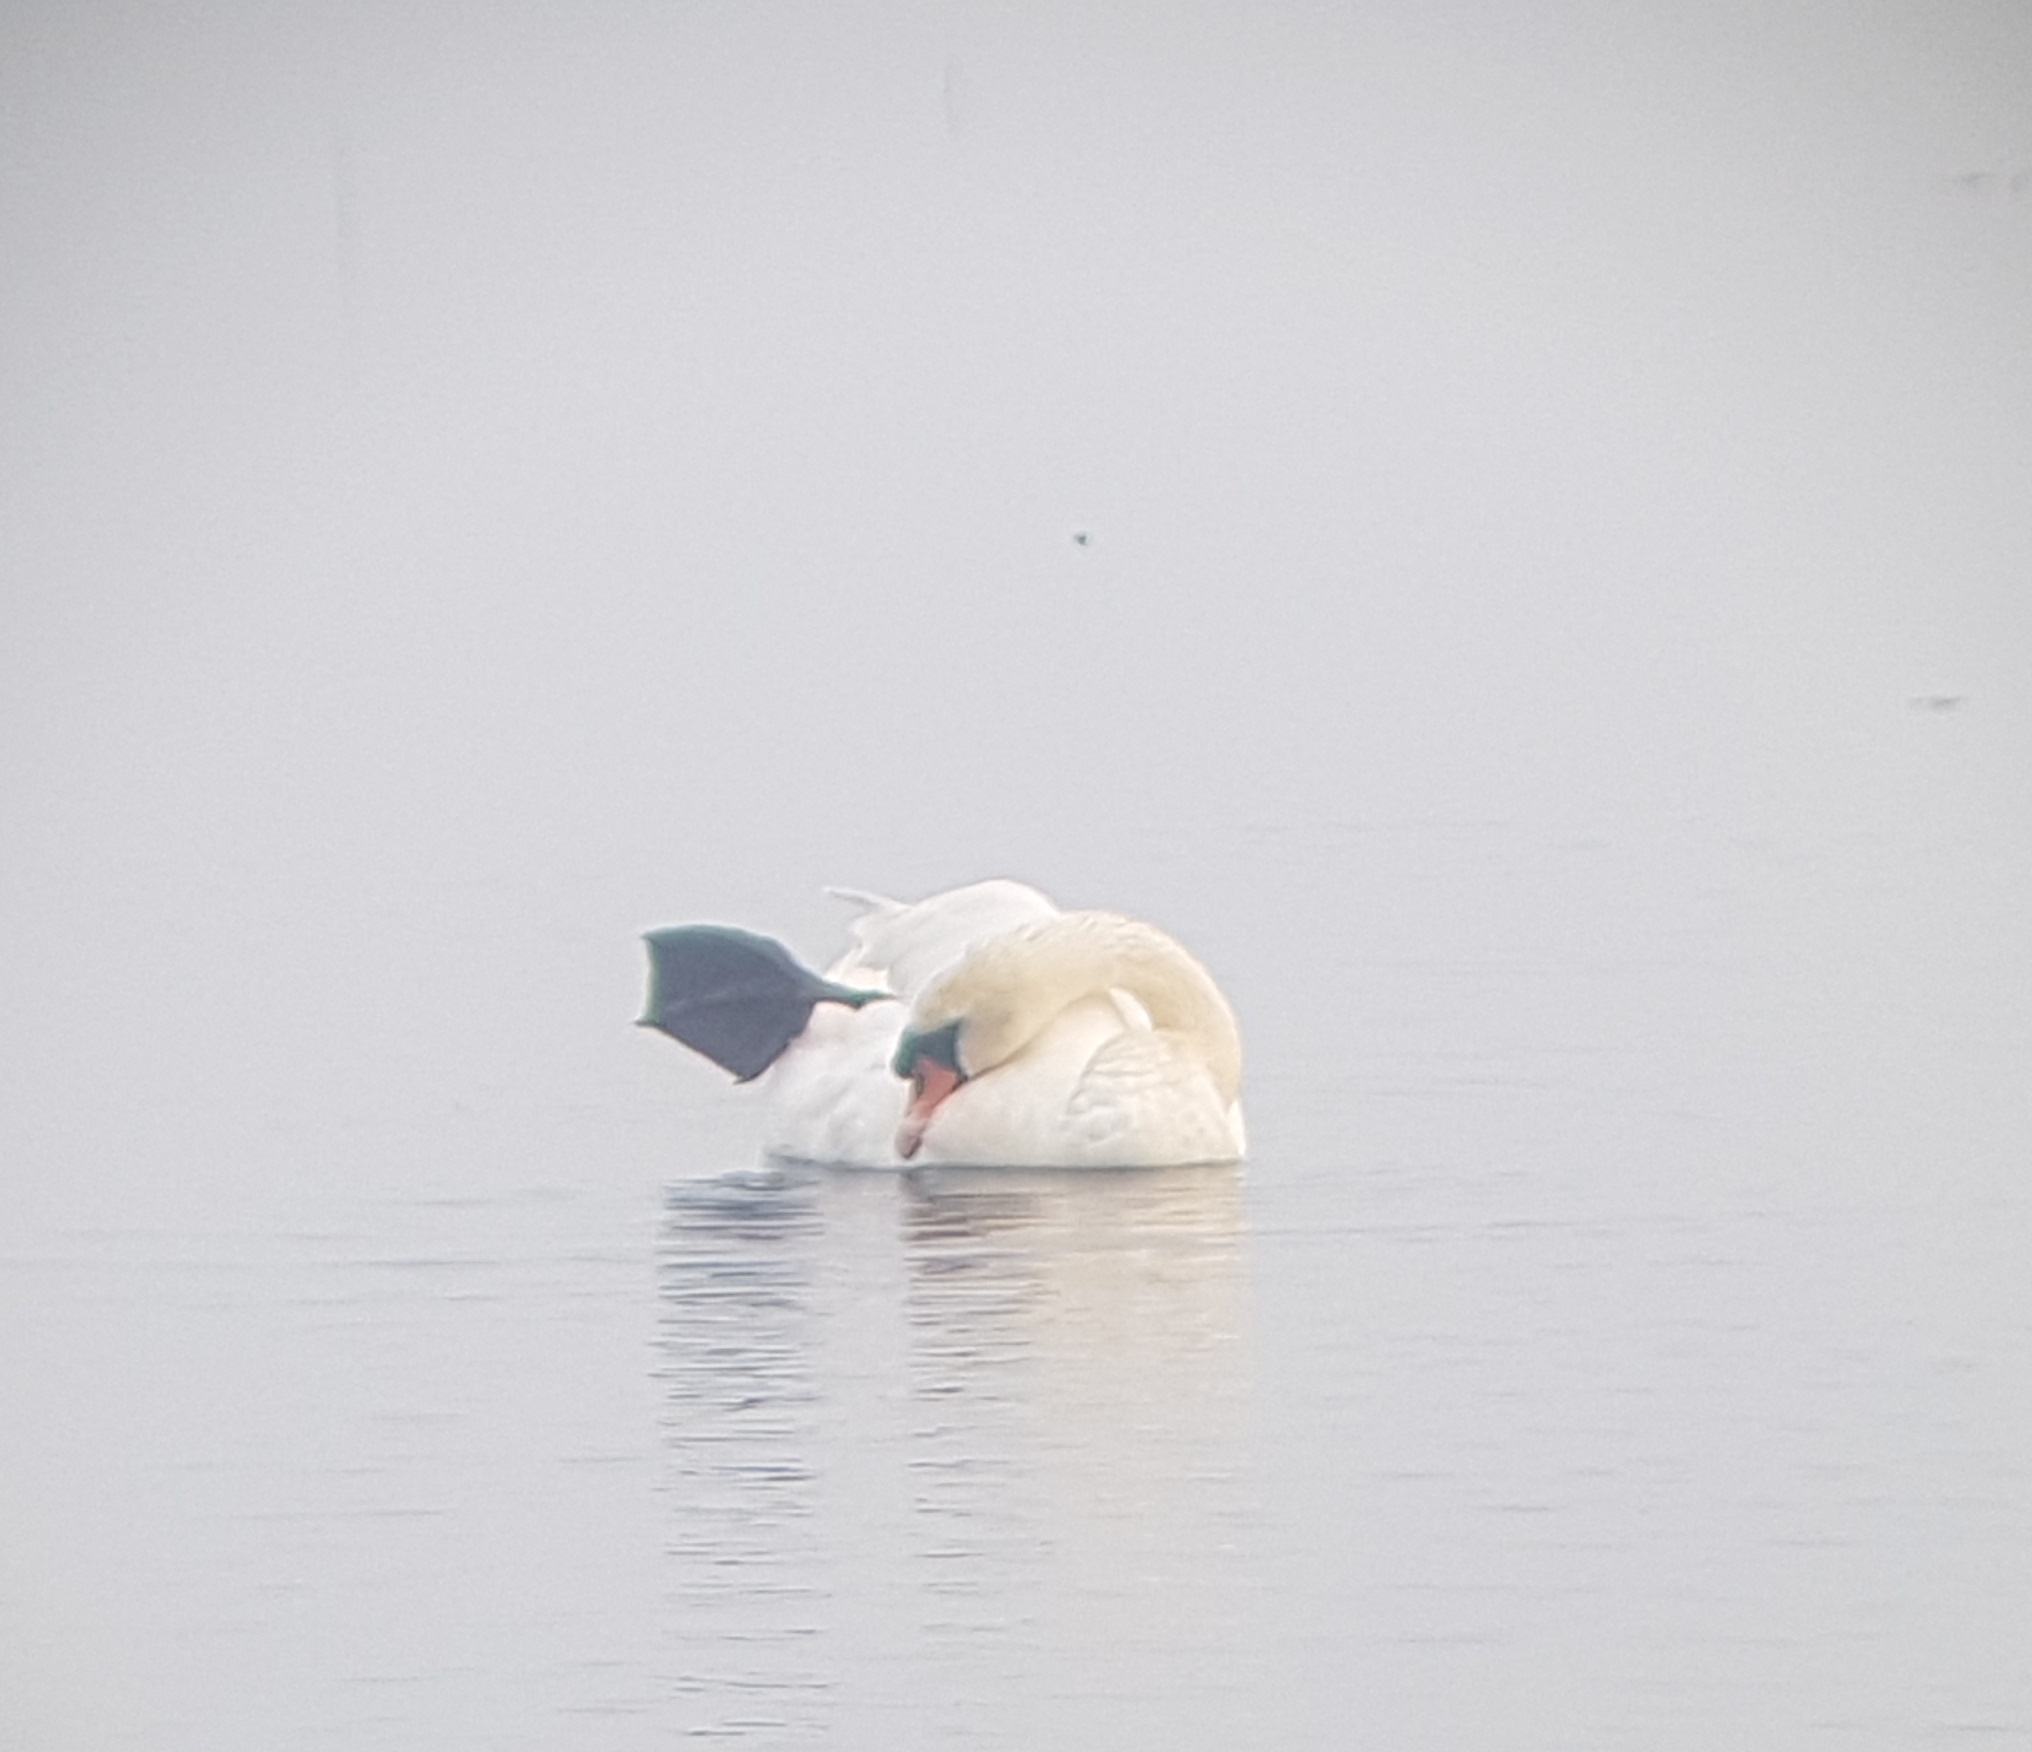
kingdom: Animalia
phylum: Chordata
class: Aves
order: Anseriformes
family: Anatidae
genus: Cygnus
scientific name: Cygnus olor
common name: Mute swan
